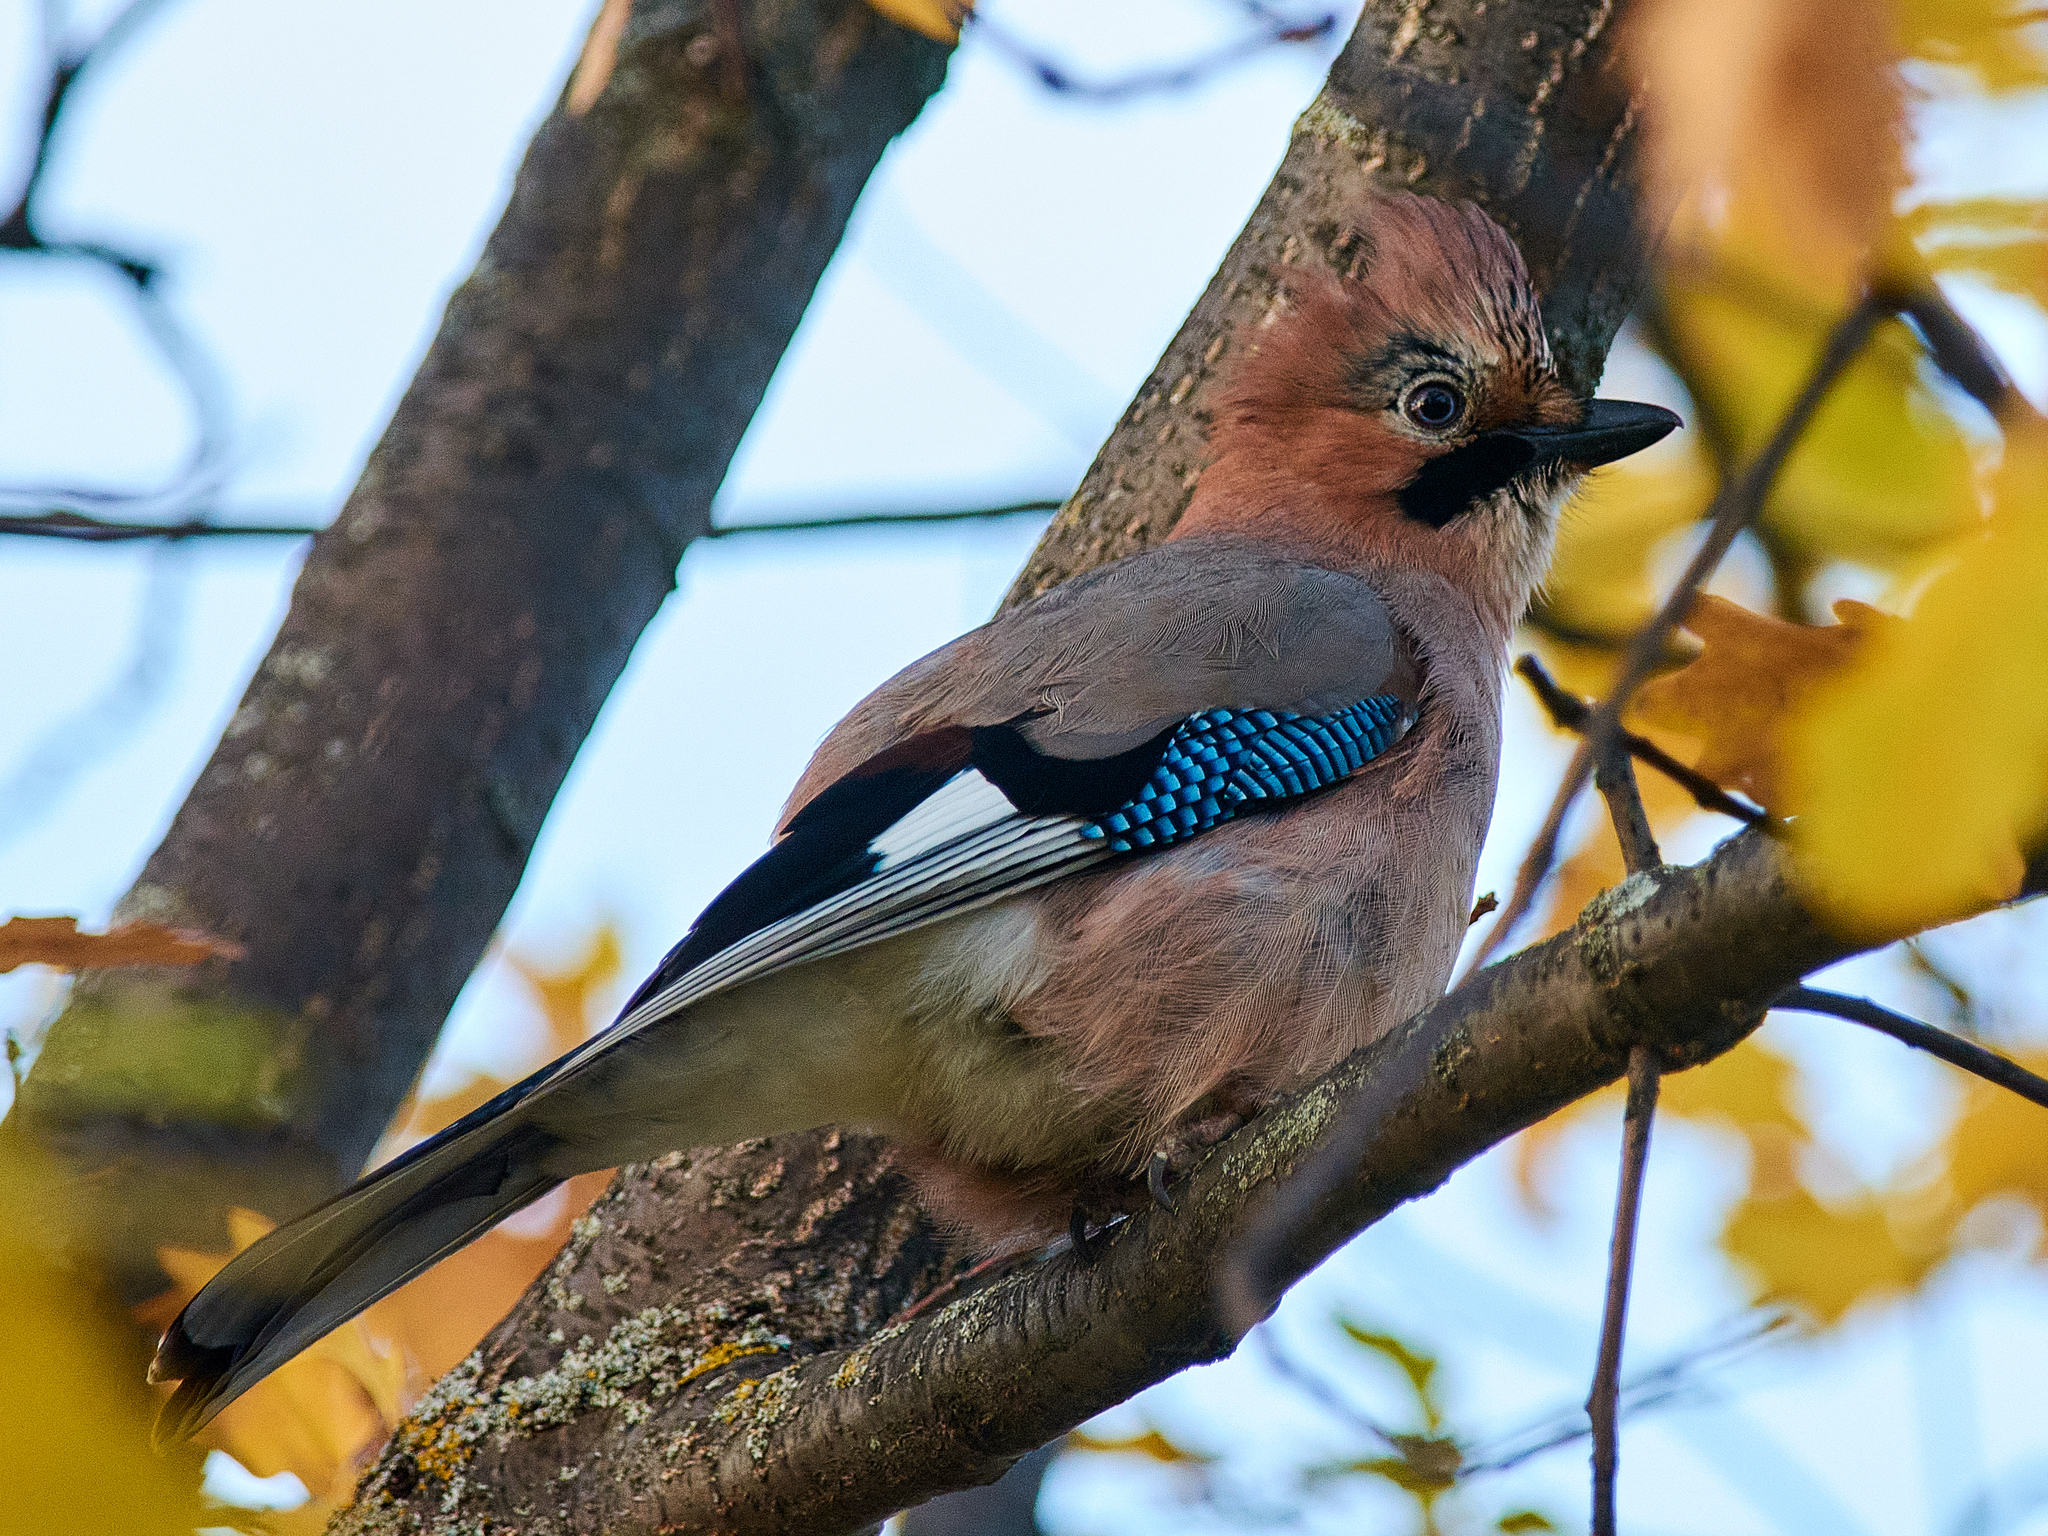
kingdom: Animalia
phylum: Chordata
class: Aves
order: Passeriformes
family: Corvidae
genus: Garrulus
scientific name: Garrulus glandarius
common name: Eurasian jay
